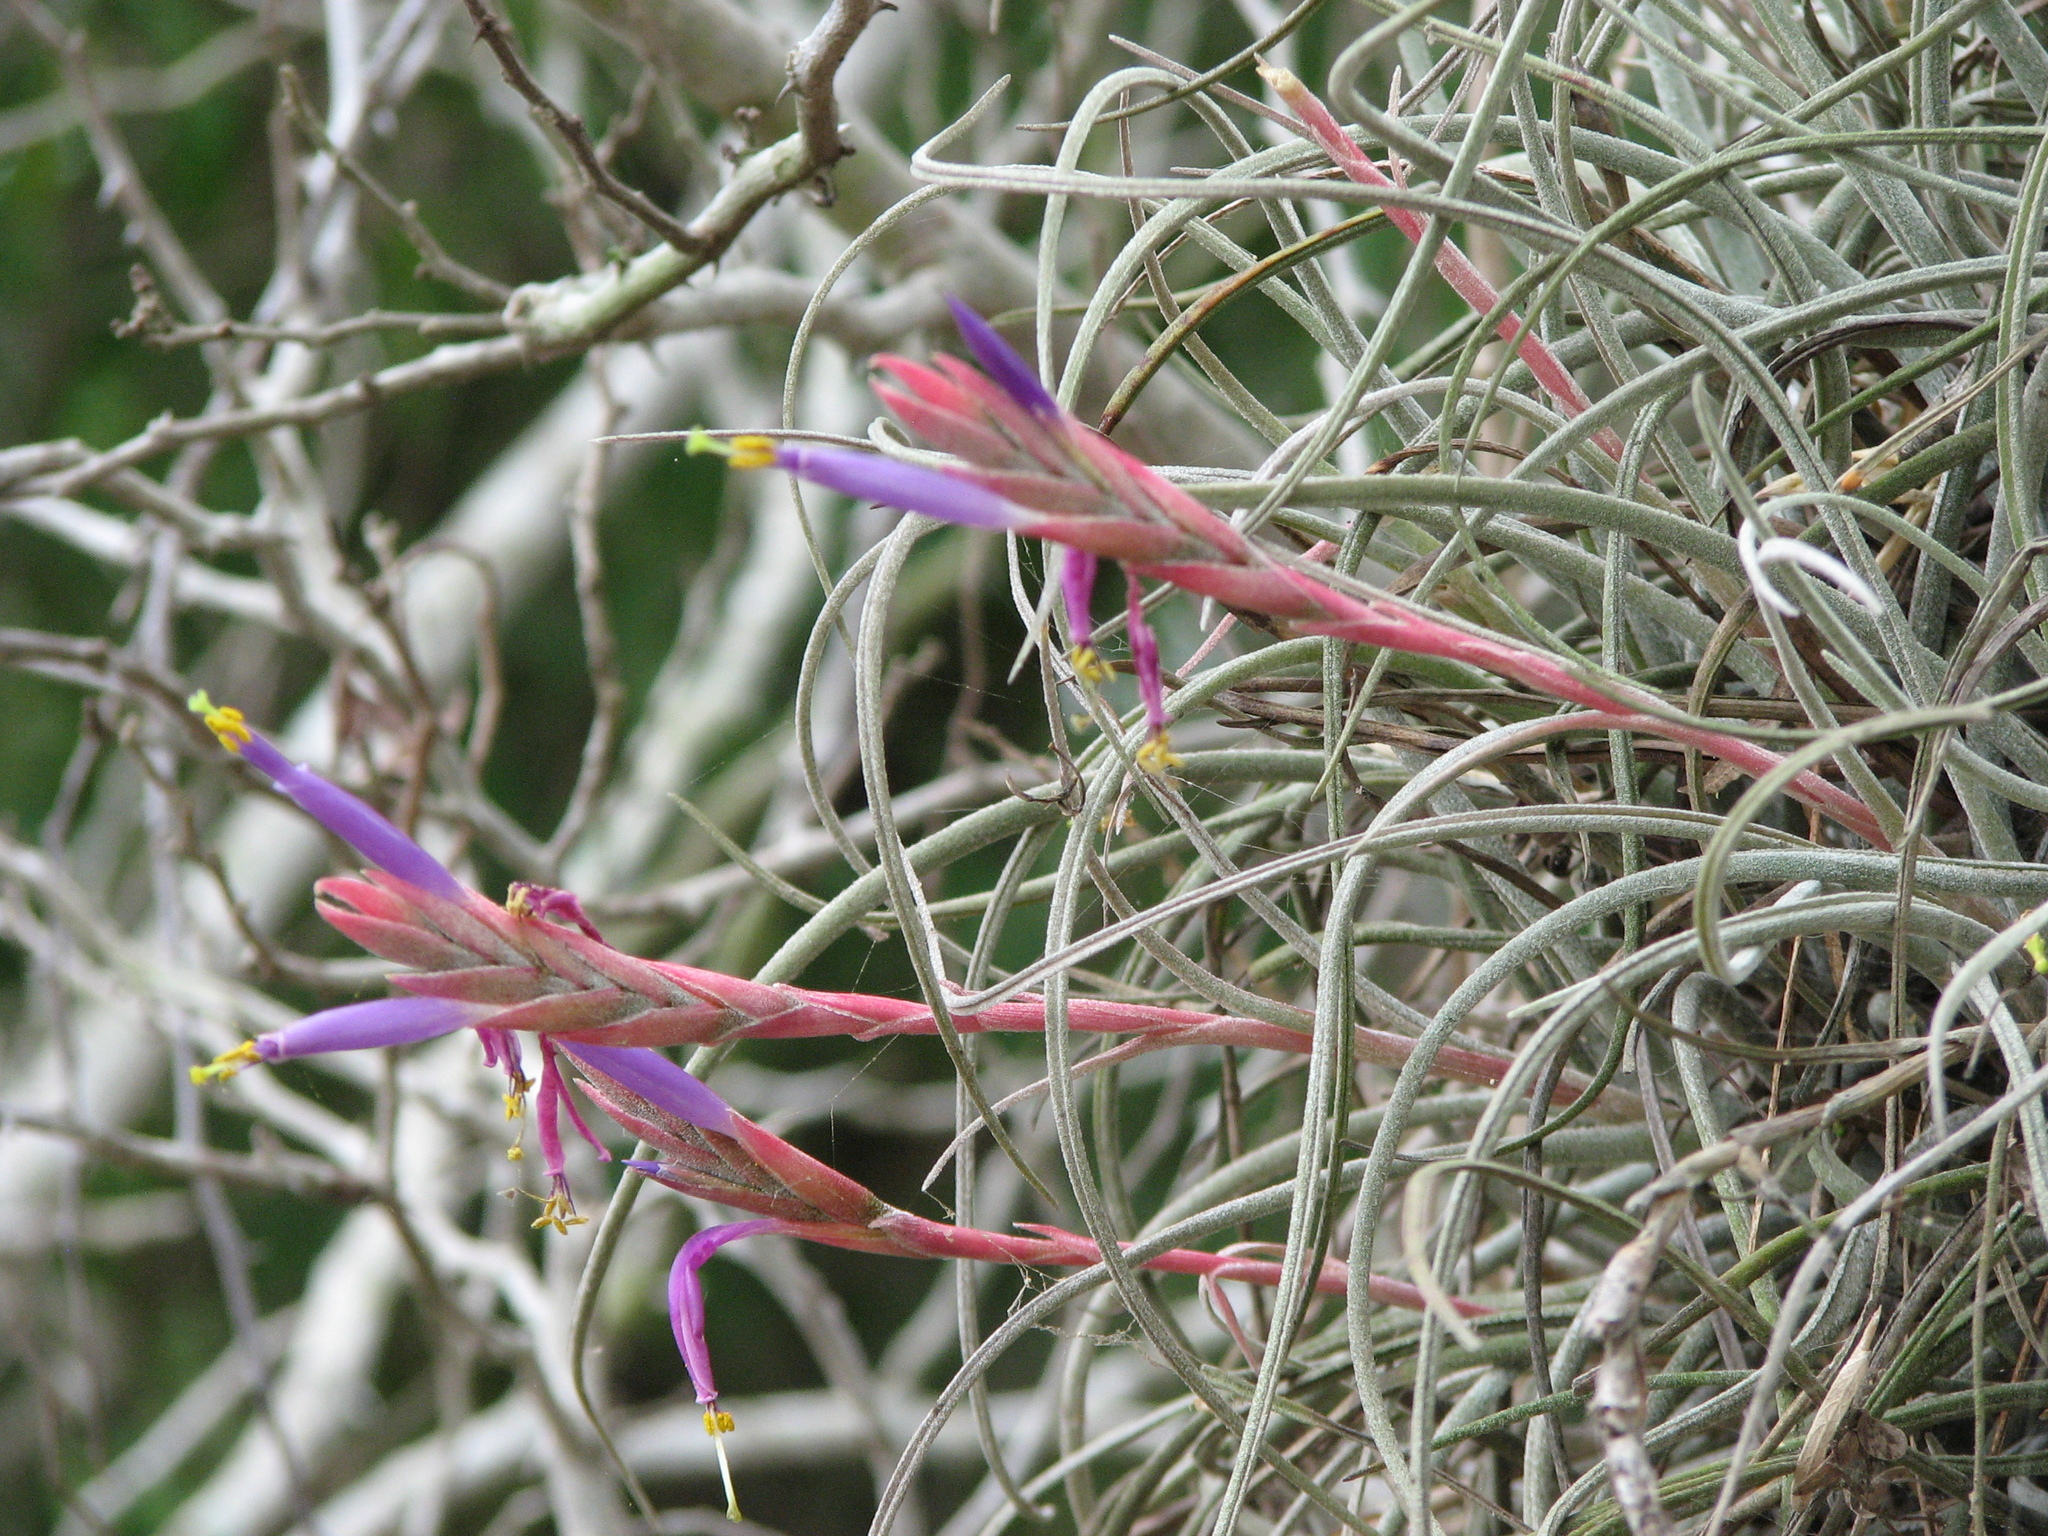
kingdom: Plantae
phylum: Tracheophyta
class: Liliopsida
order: Poales
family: Bromeliaceae
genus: Tillandsia
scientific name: Tillandsia baileyi
